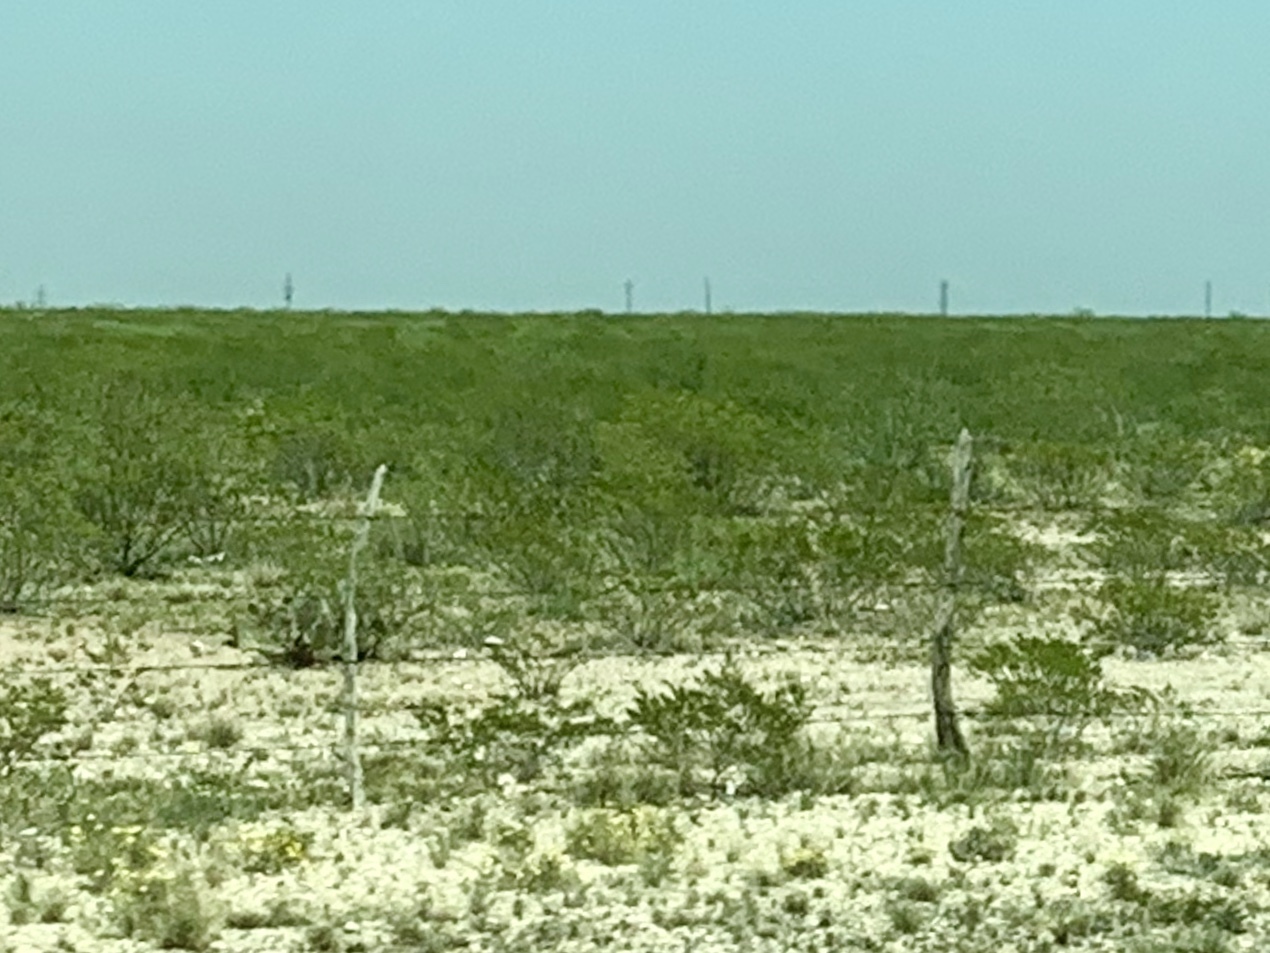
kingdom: Plantae
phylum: Tracheophyta
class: Magnoliopsida
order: Zygophyllales
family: Zygophyllaceae
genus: Larrea
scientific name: Larrea tridentata
